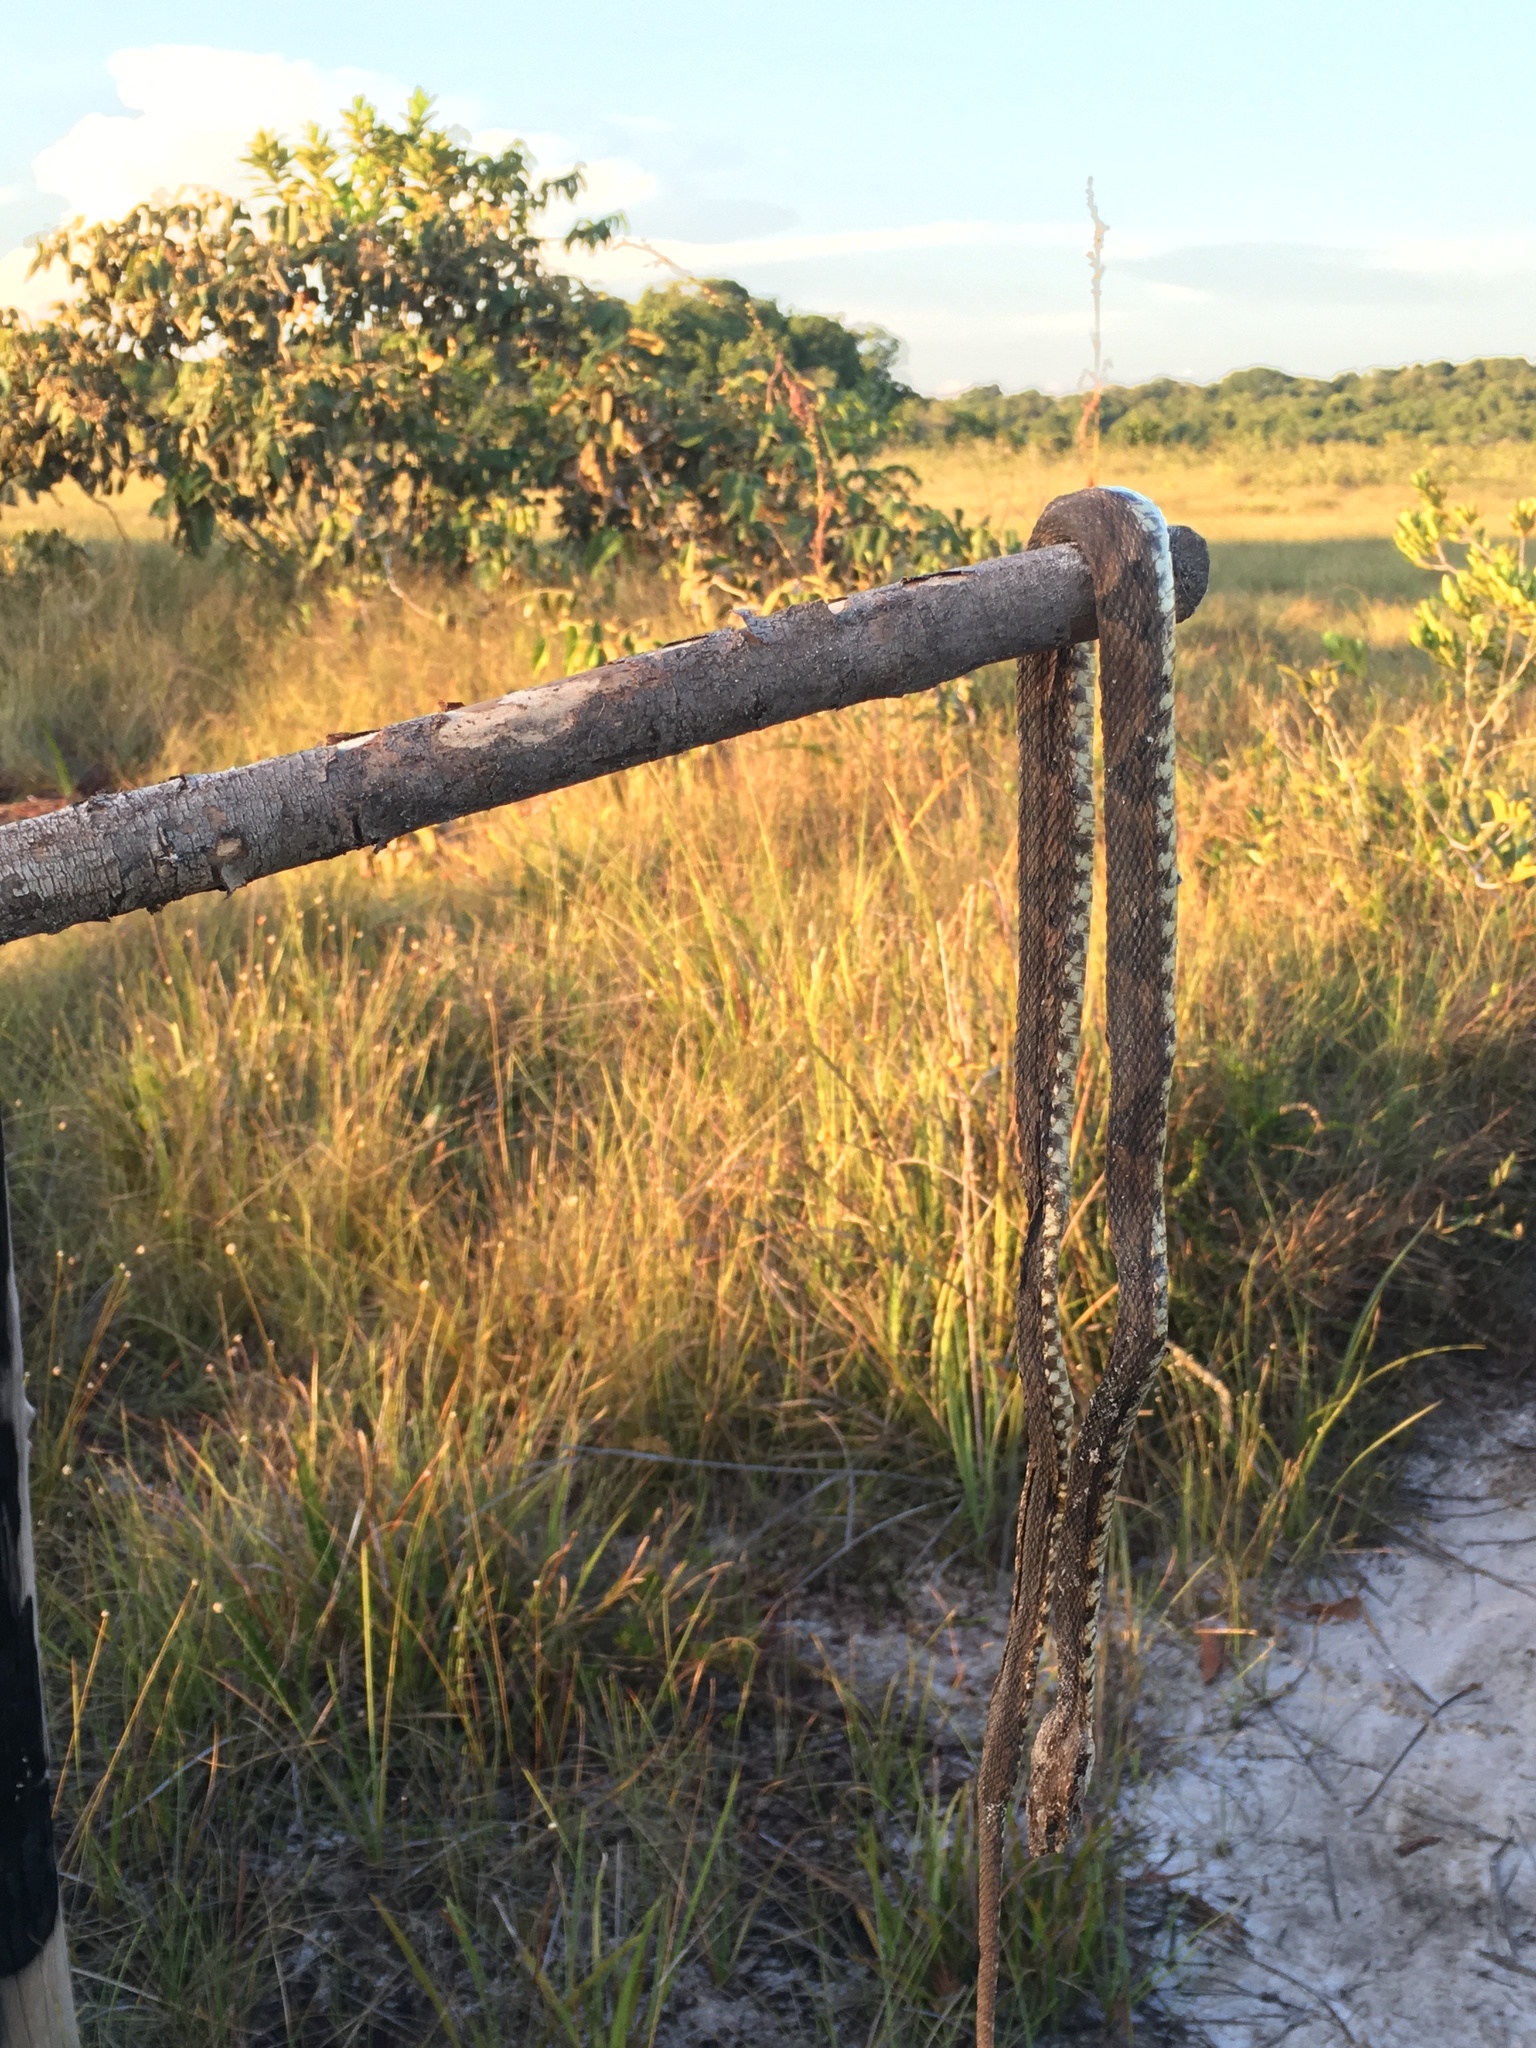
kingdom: Animalia
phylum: Chordata
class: Squamata
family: Viperidae
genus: Bothrops
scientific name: Bothrops atrox
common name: Common lancehead
